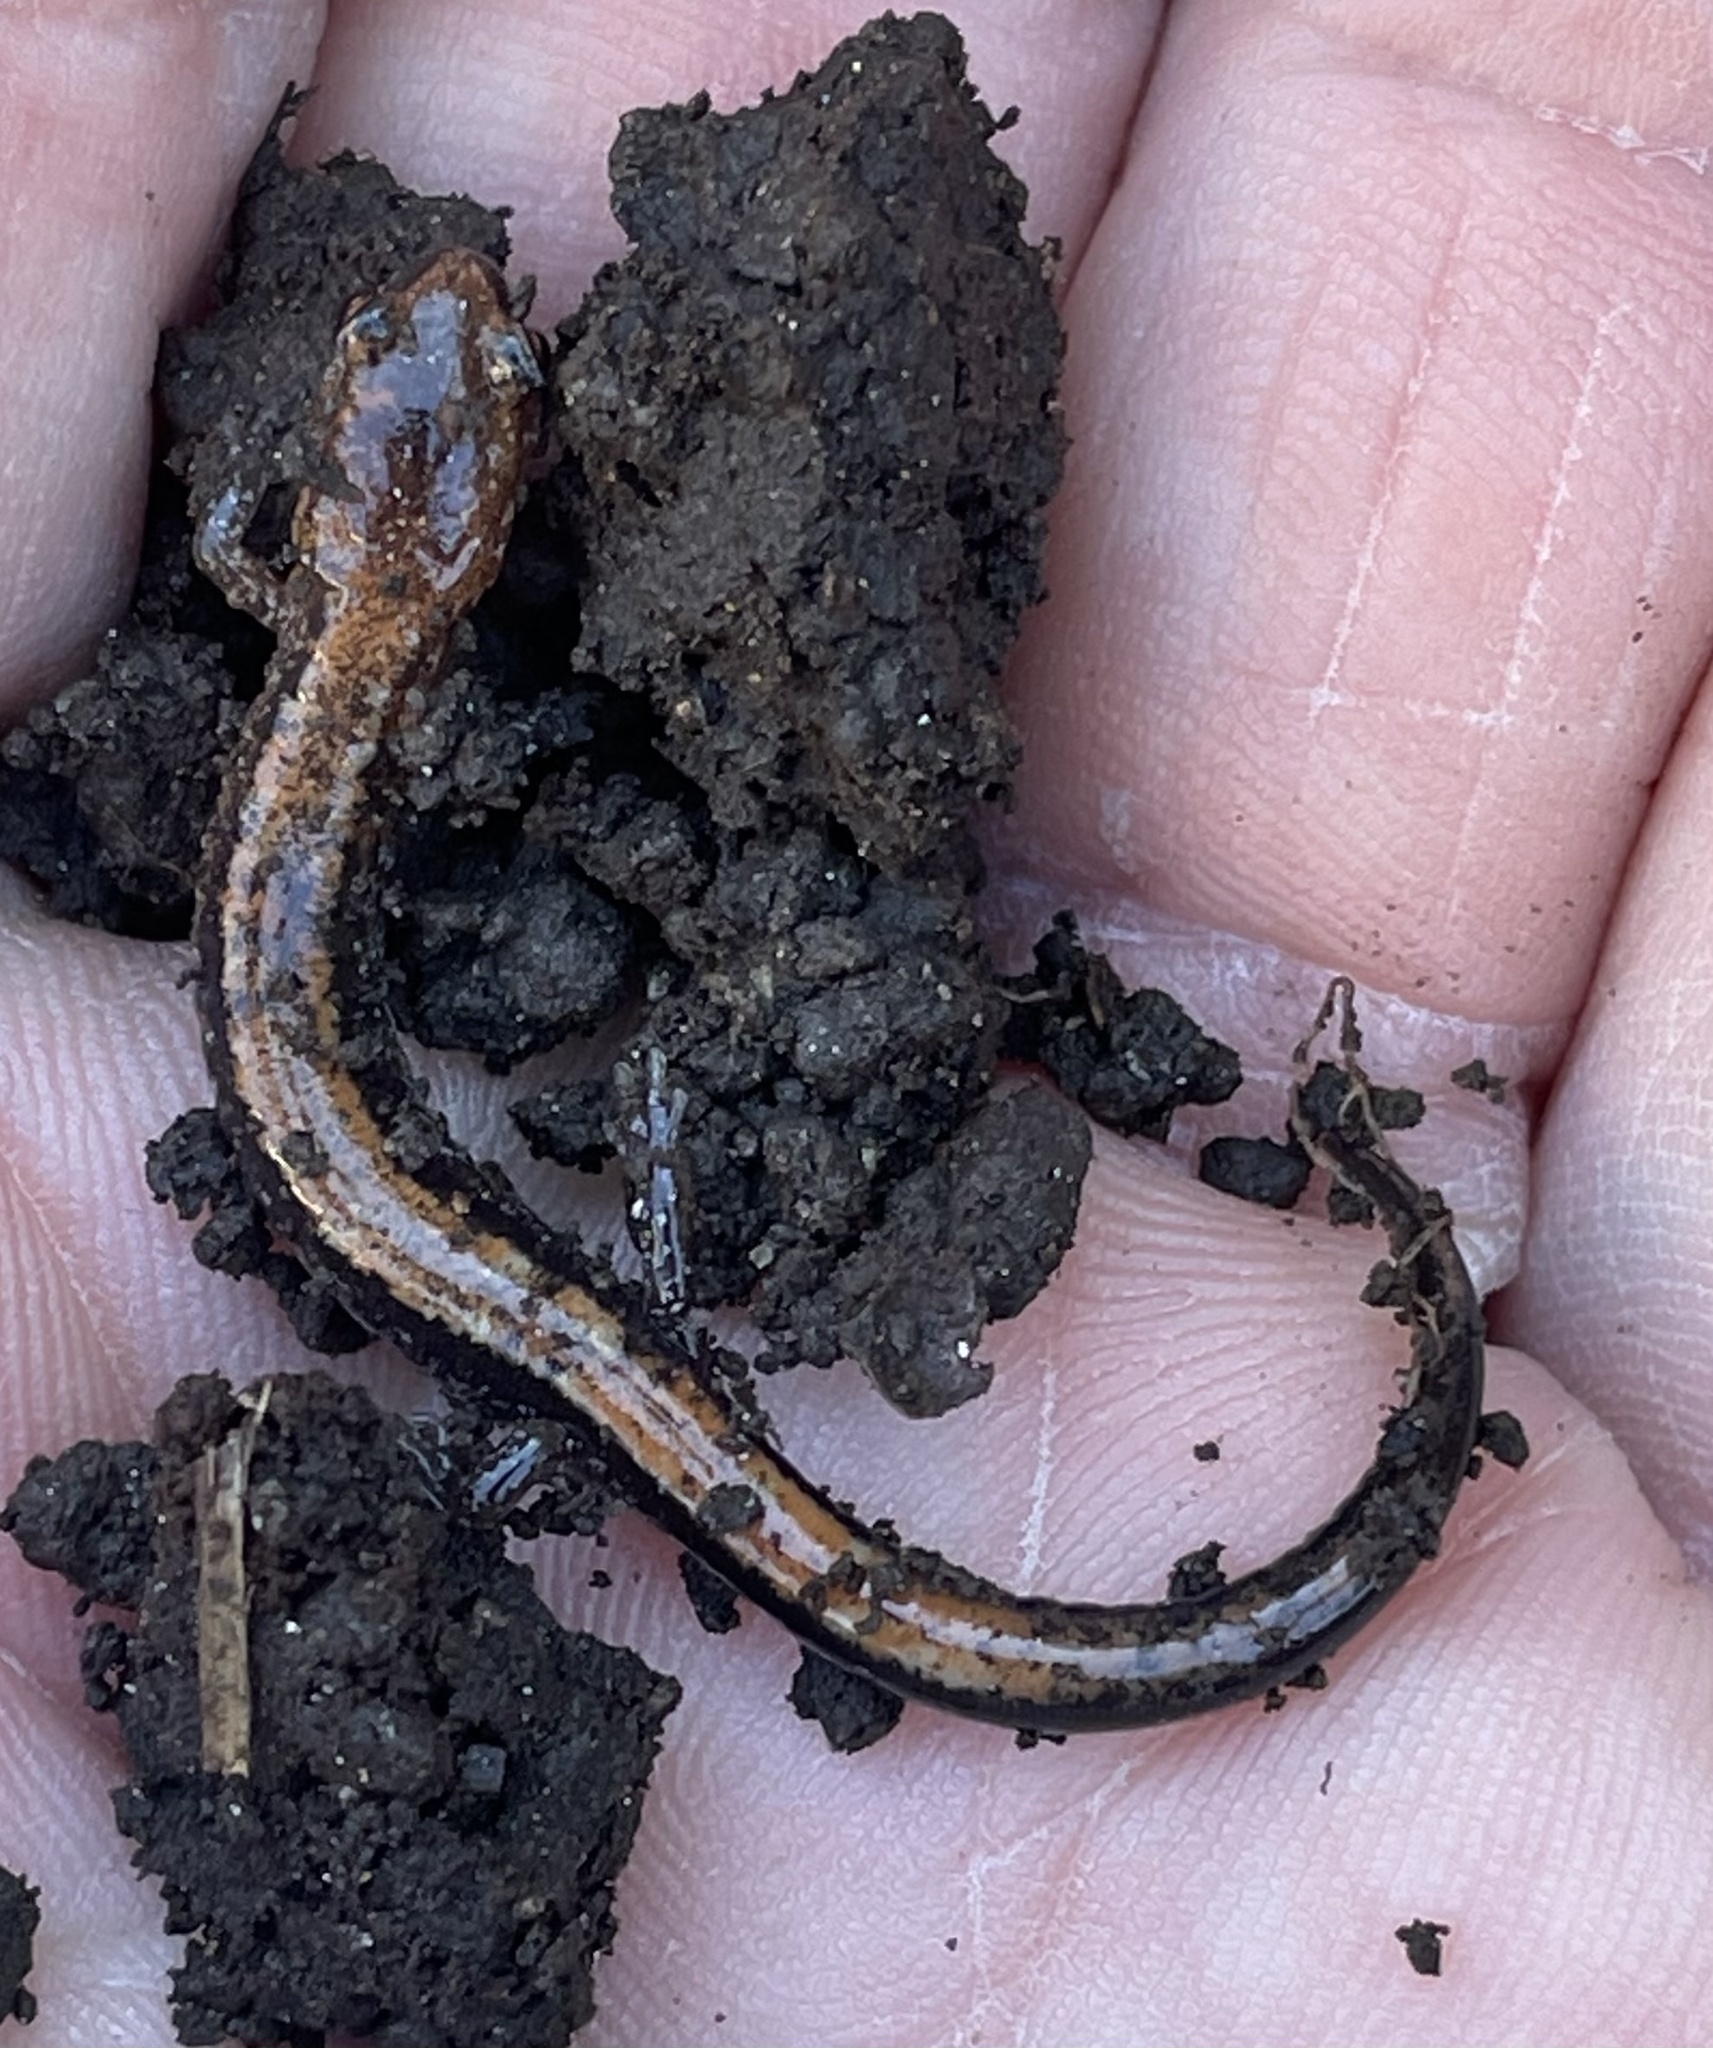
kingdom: Animalia
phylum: Chordata
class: Amphibia
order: Caudata
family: Plethodontidae
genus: Plethodon
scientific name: Plethodon cinereus
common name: Redback salamander
